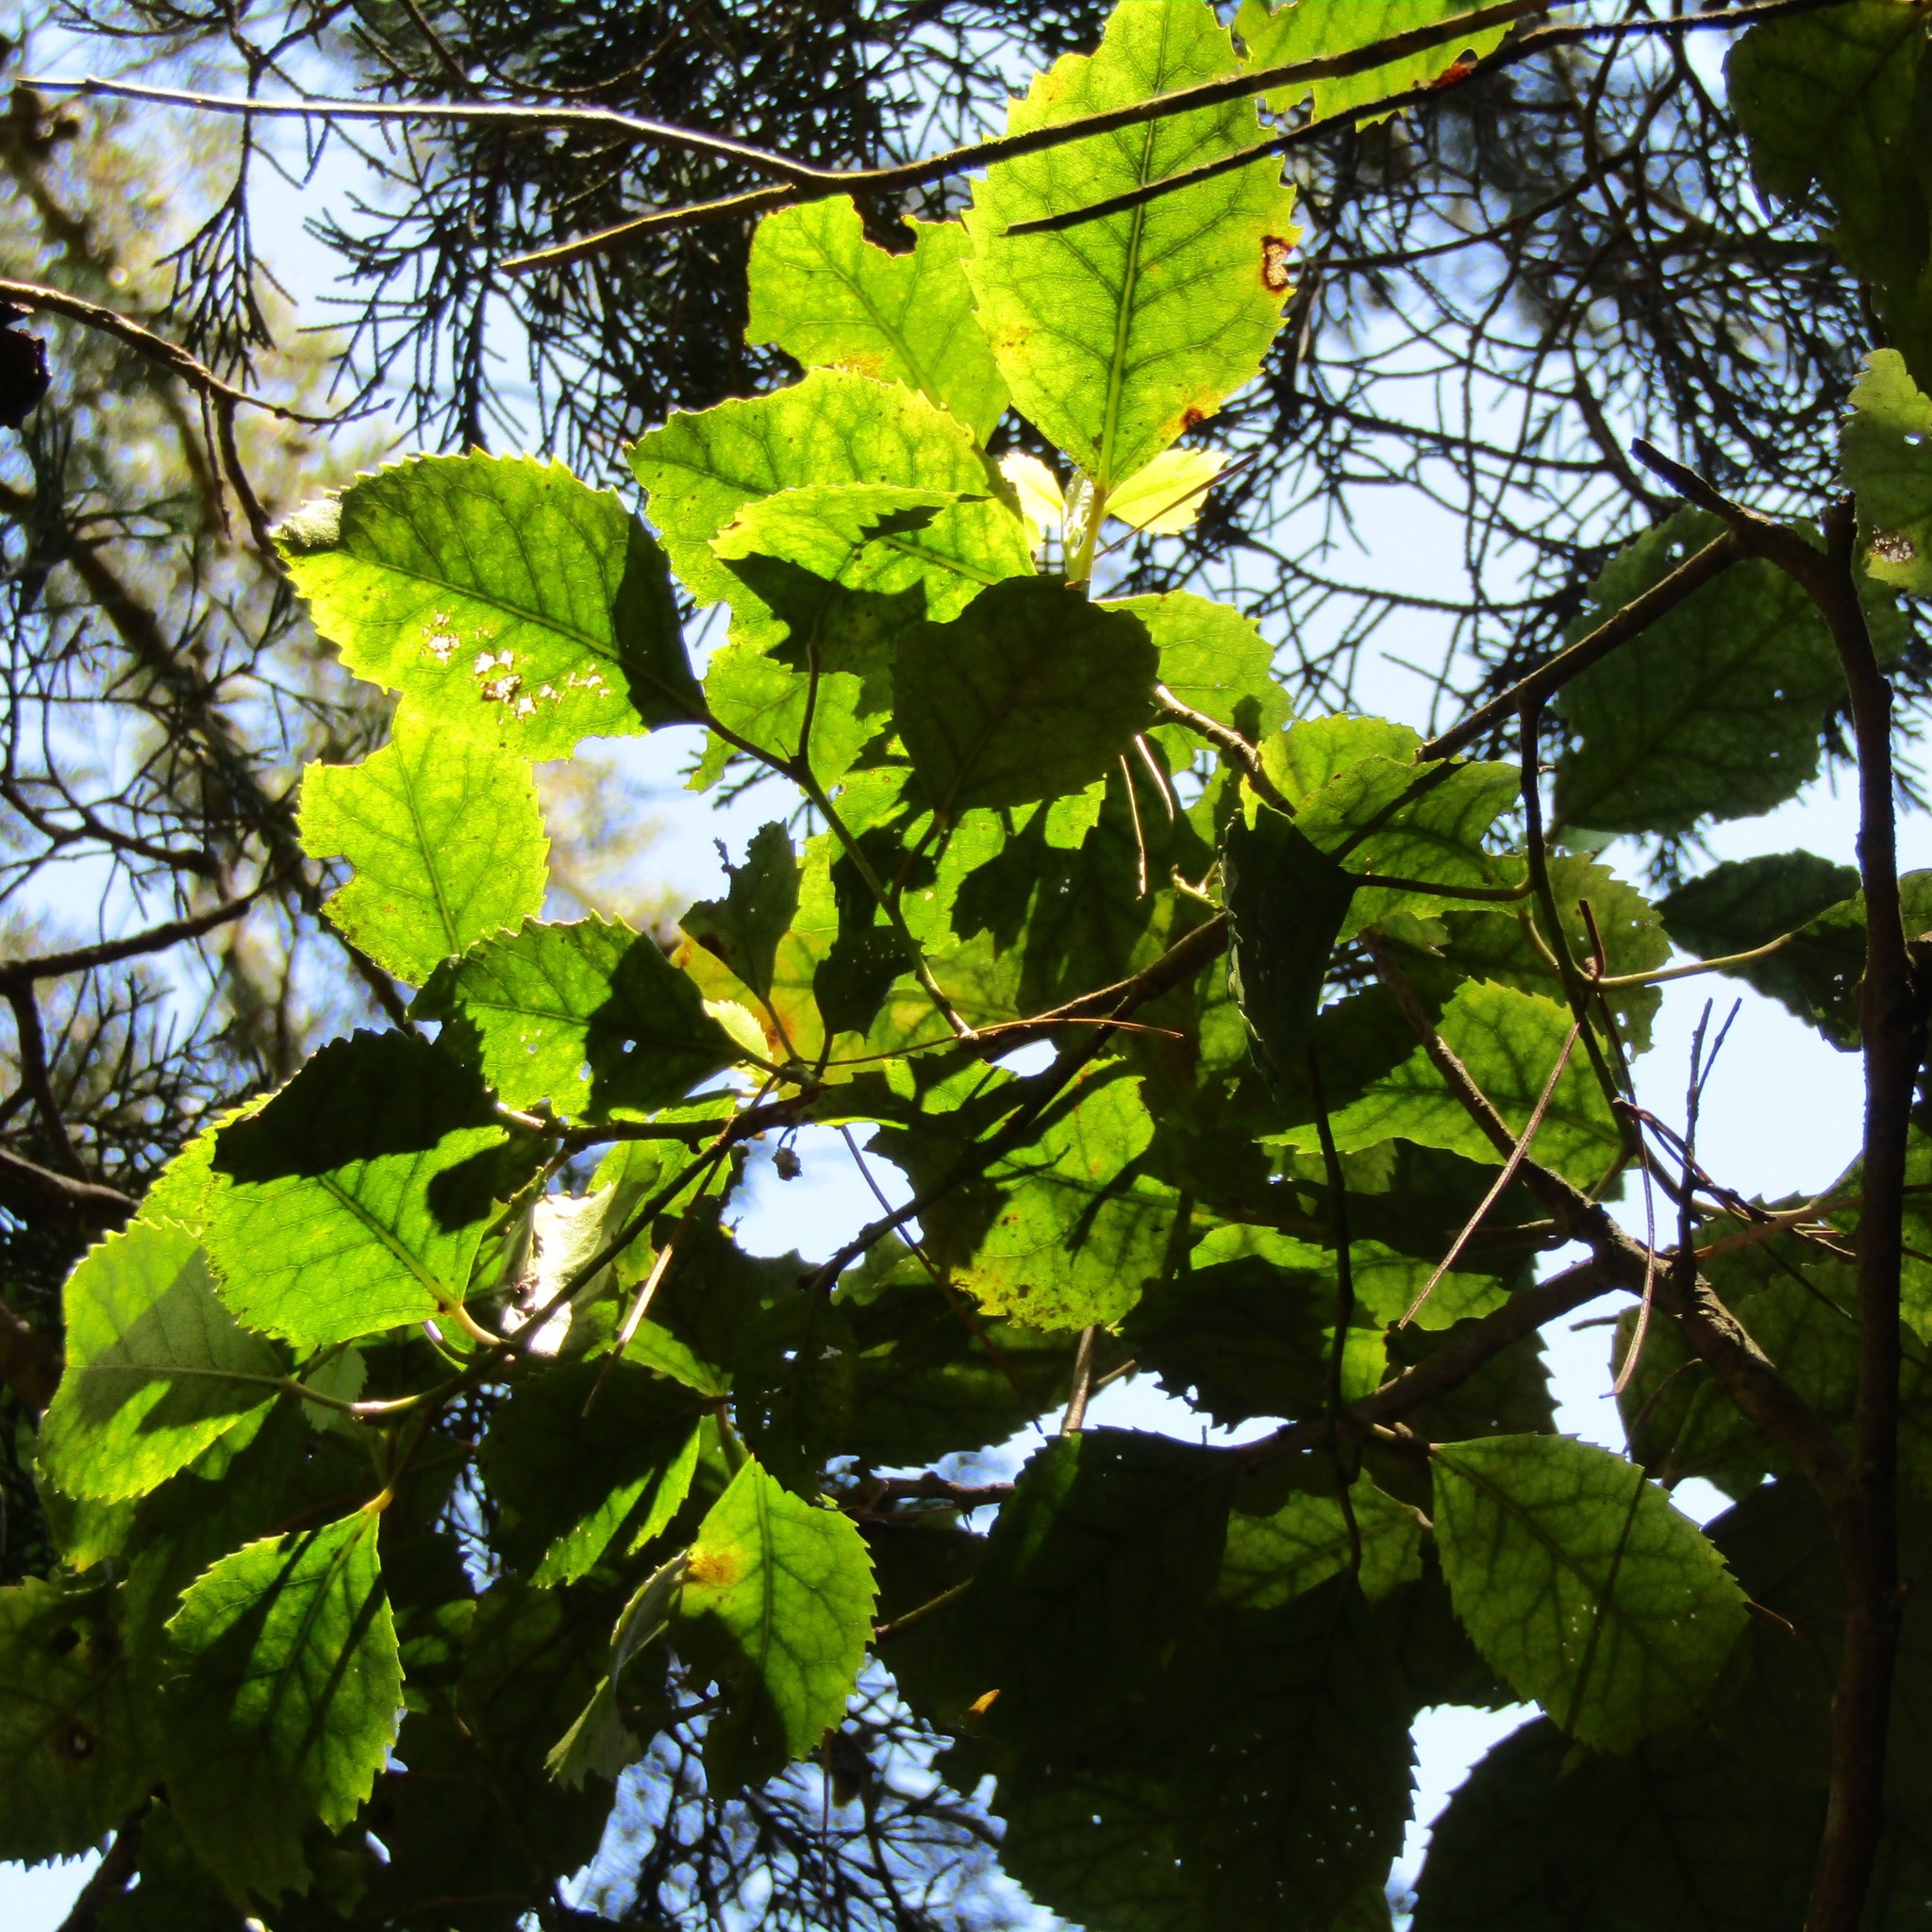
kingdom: Plantae
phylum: Tracheophyta
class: Magnoliopsida
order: Malvales
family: Malvaceae
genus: Hoheria
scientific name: Hoheria populnea
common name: Lacebark
